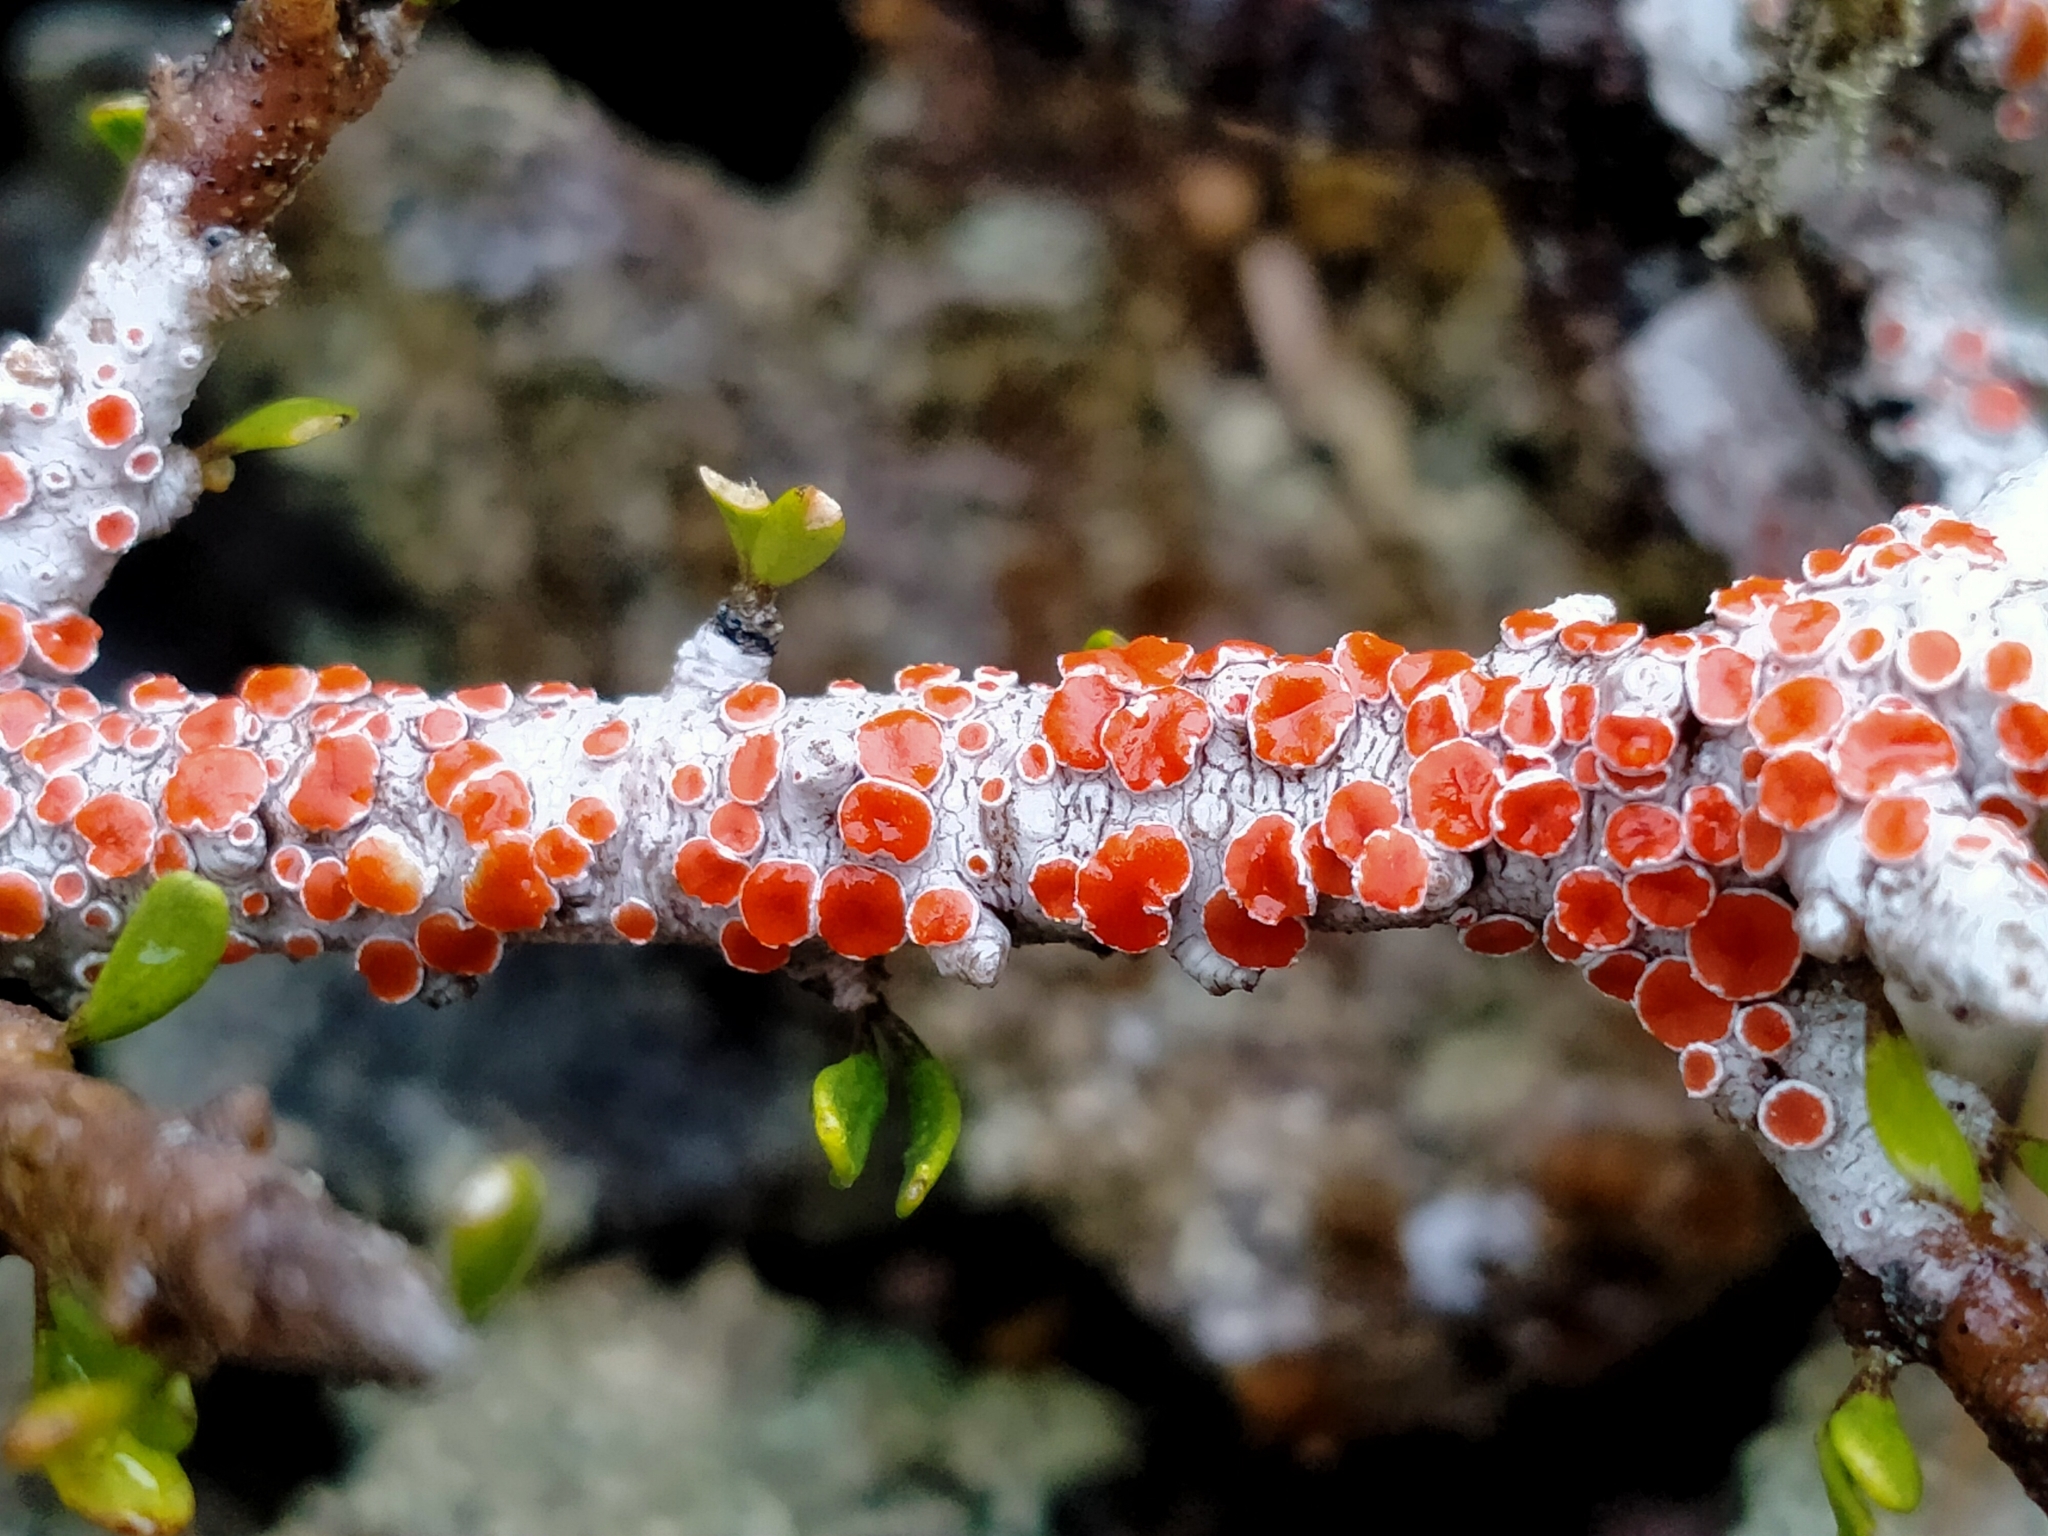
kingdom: Fungi
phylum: Ascomycota
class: Lecanoromycetes
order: Lecanorales
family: Haematommataceae
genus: Haematomma
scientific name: Haematomma
